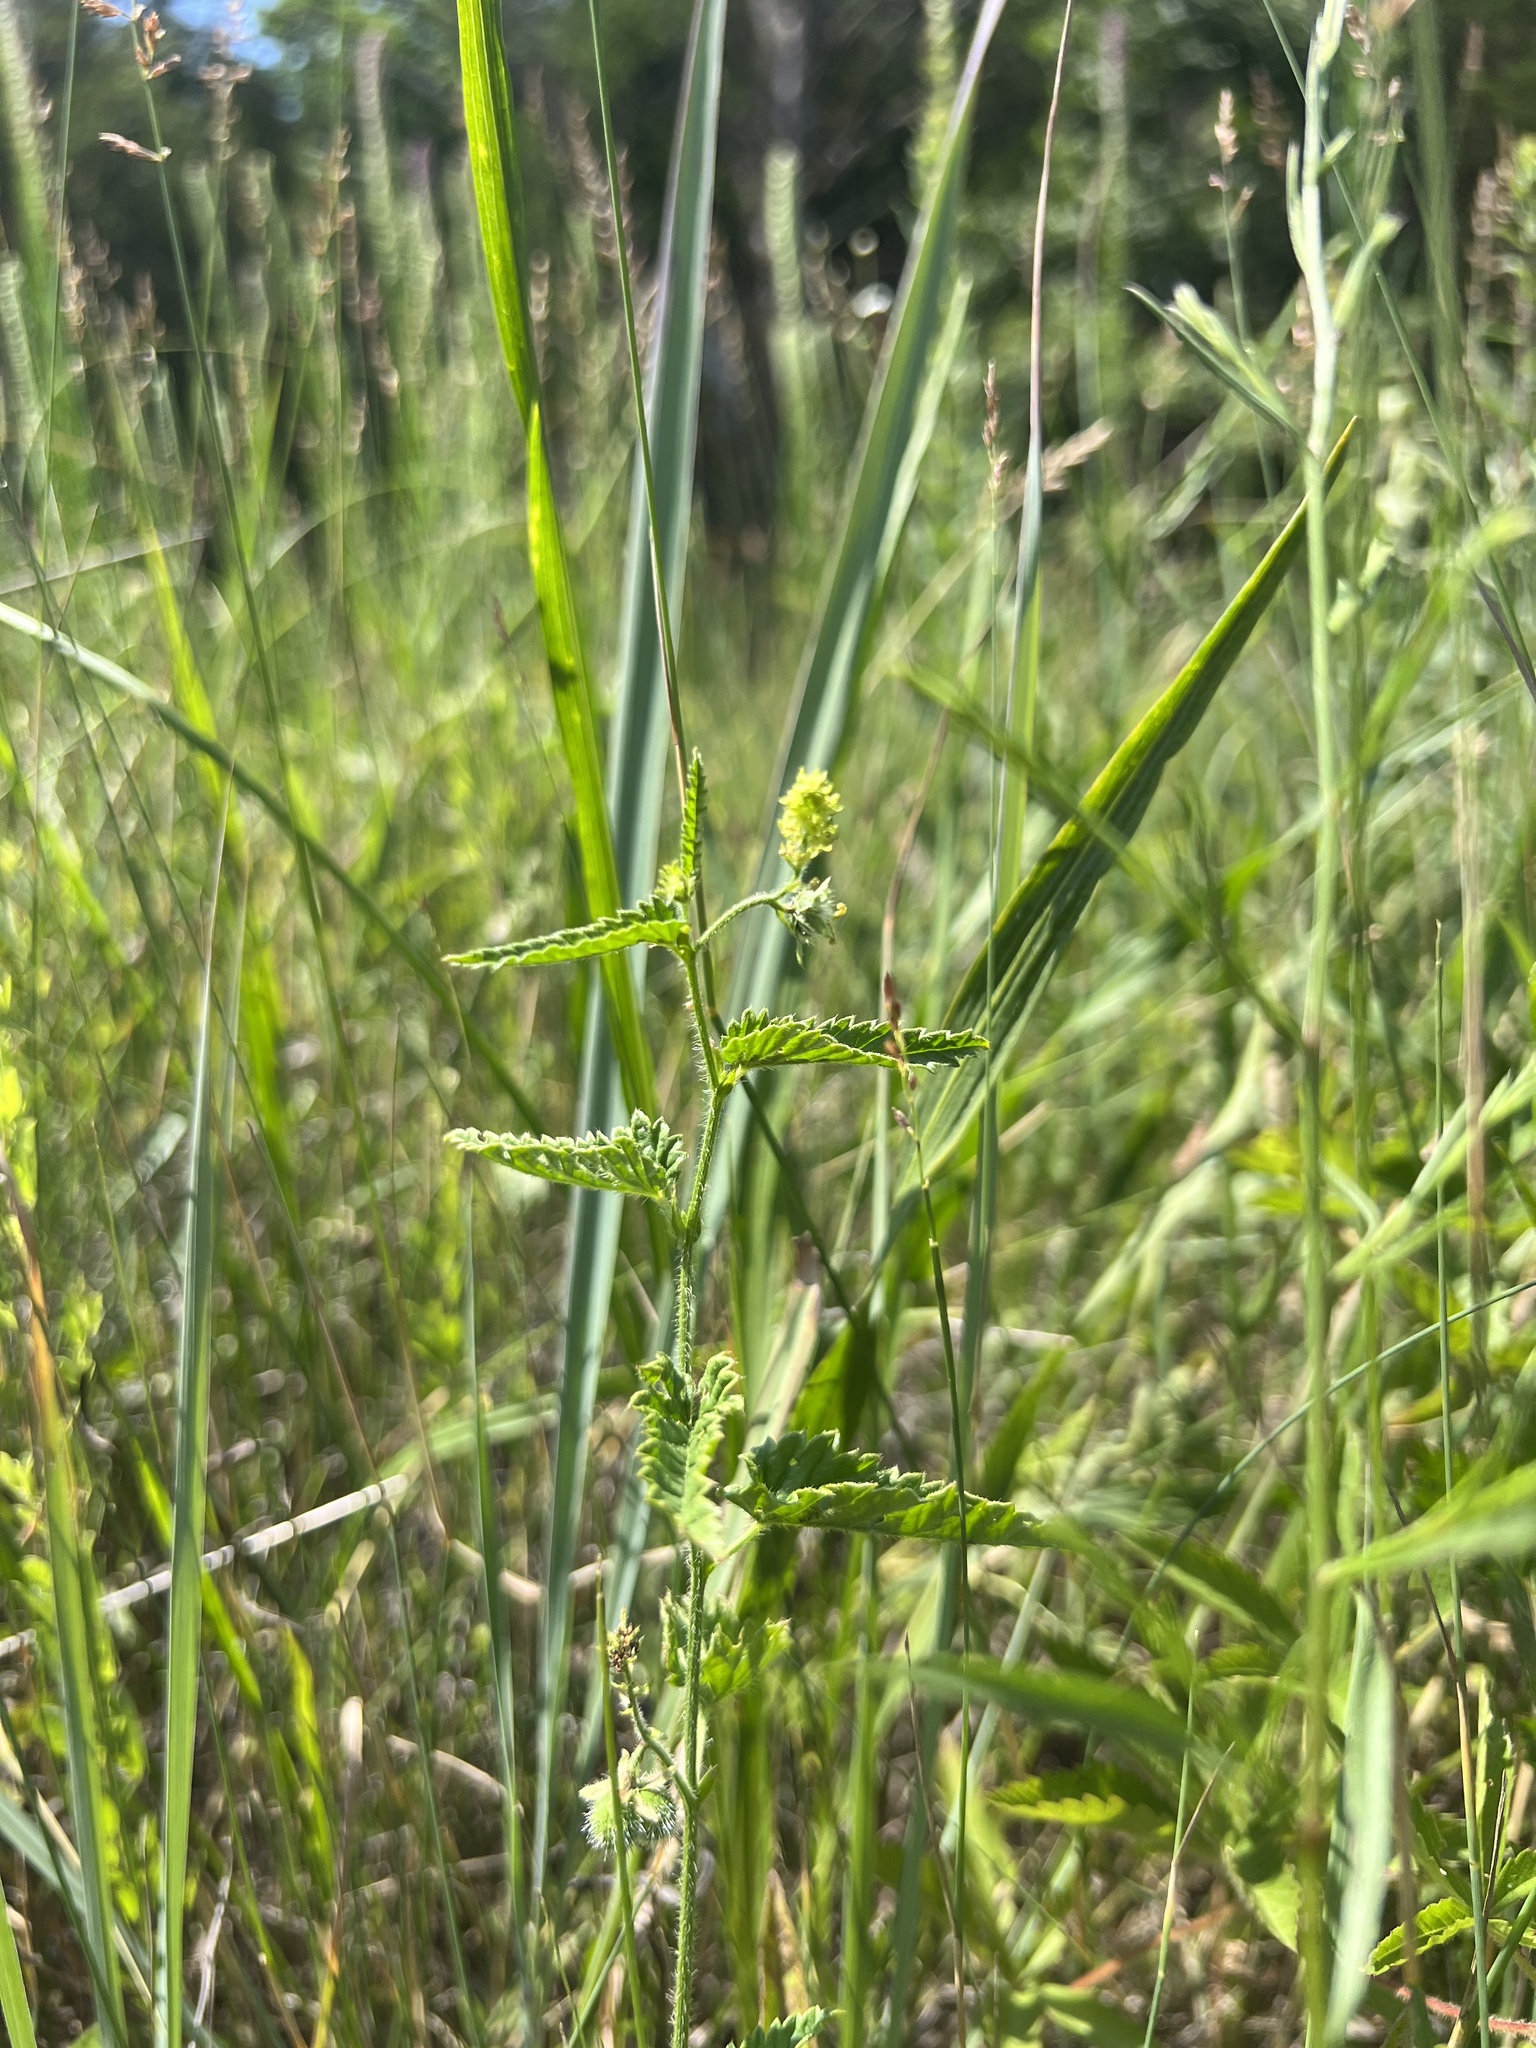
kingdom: Plantae
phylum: Tracheophyta
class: Magnoliopsida
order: Malpighiales
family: Euphorbiaceae
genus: Tragia
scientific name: Tragia betonicifolia
